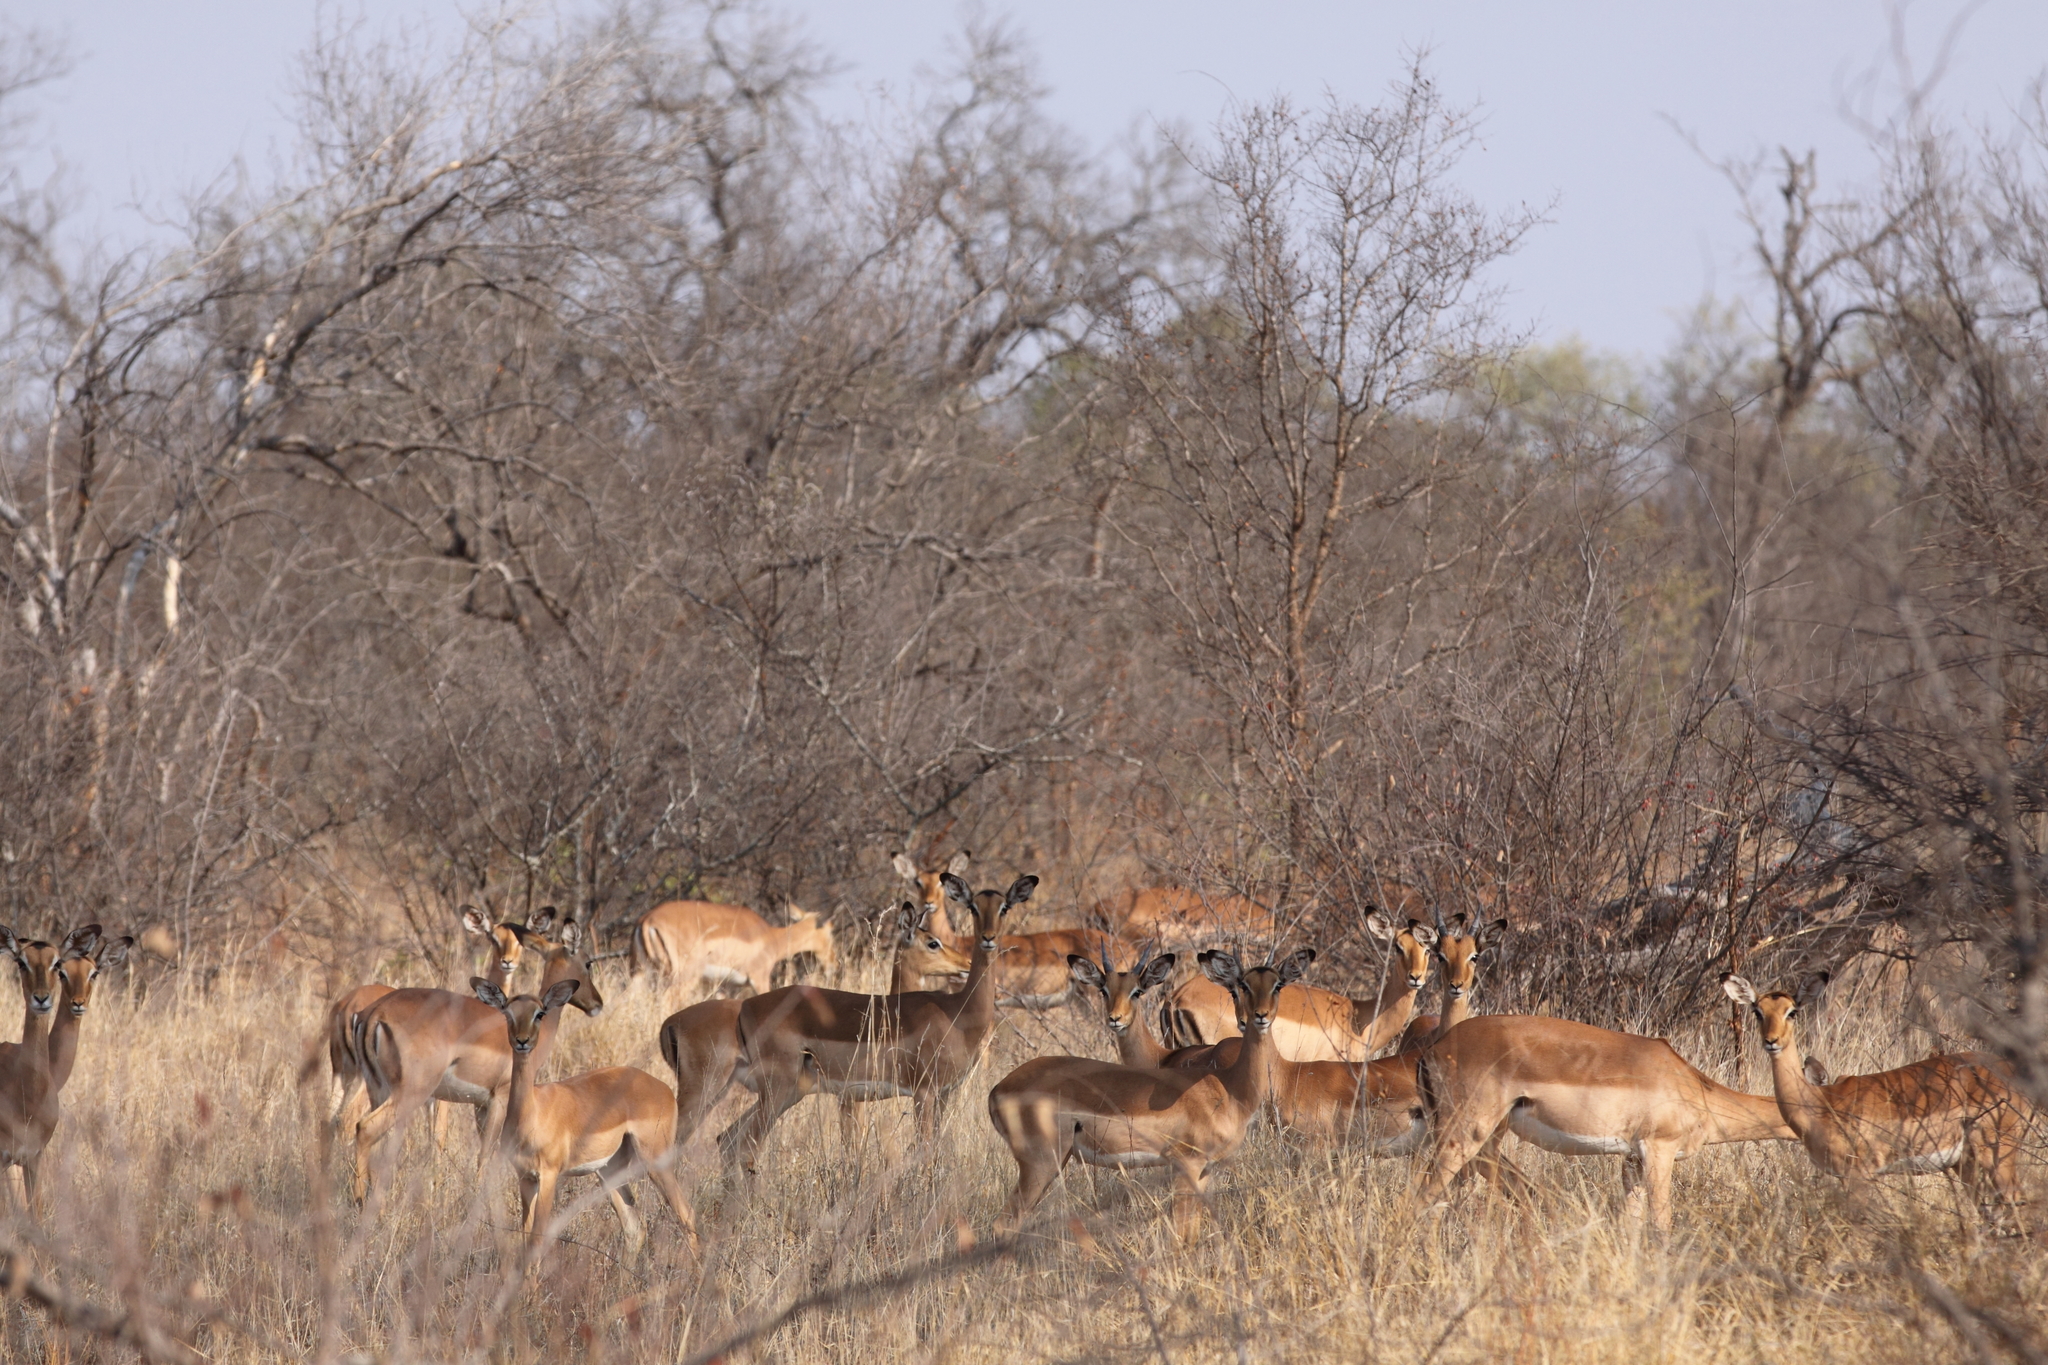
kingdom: Animalia
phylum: Chordata
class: Mammalia
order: Artiodactyla
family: Bovidae
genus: Aepyceros
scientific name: Aepyceros melampus
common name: Impala
